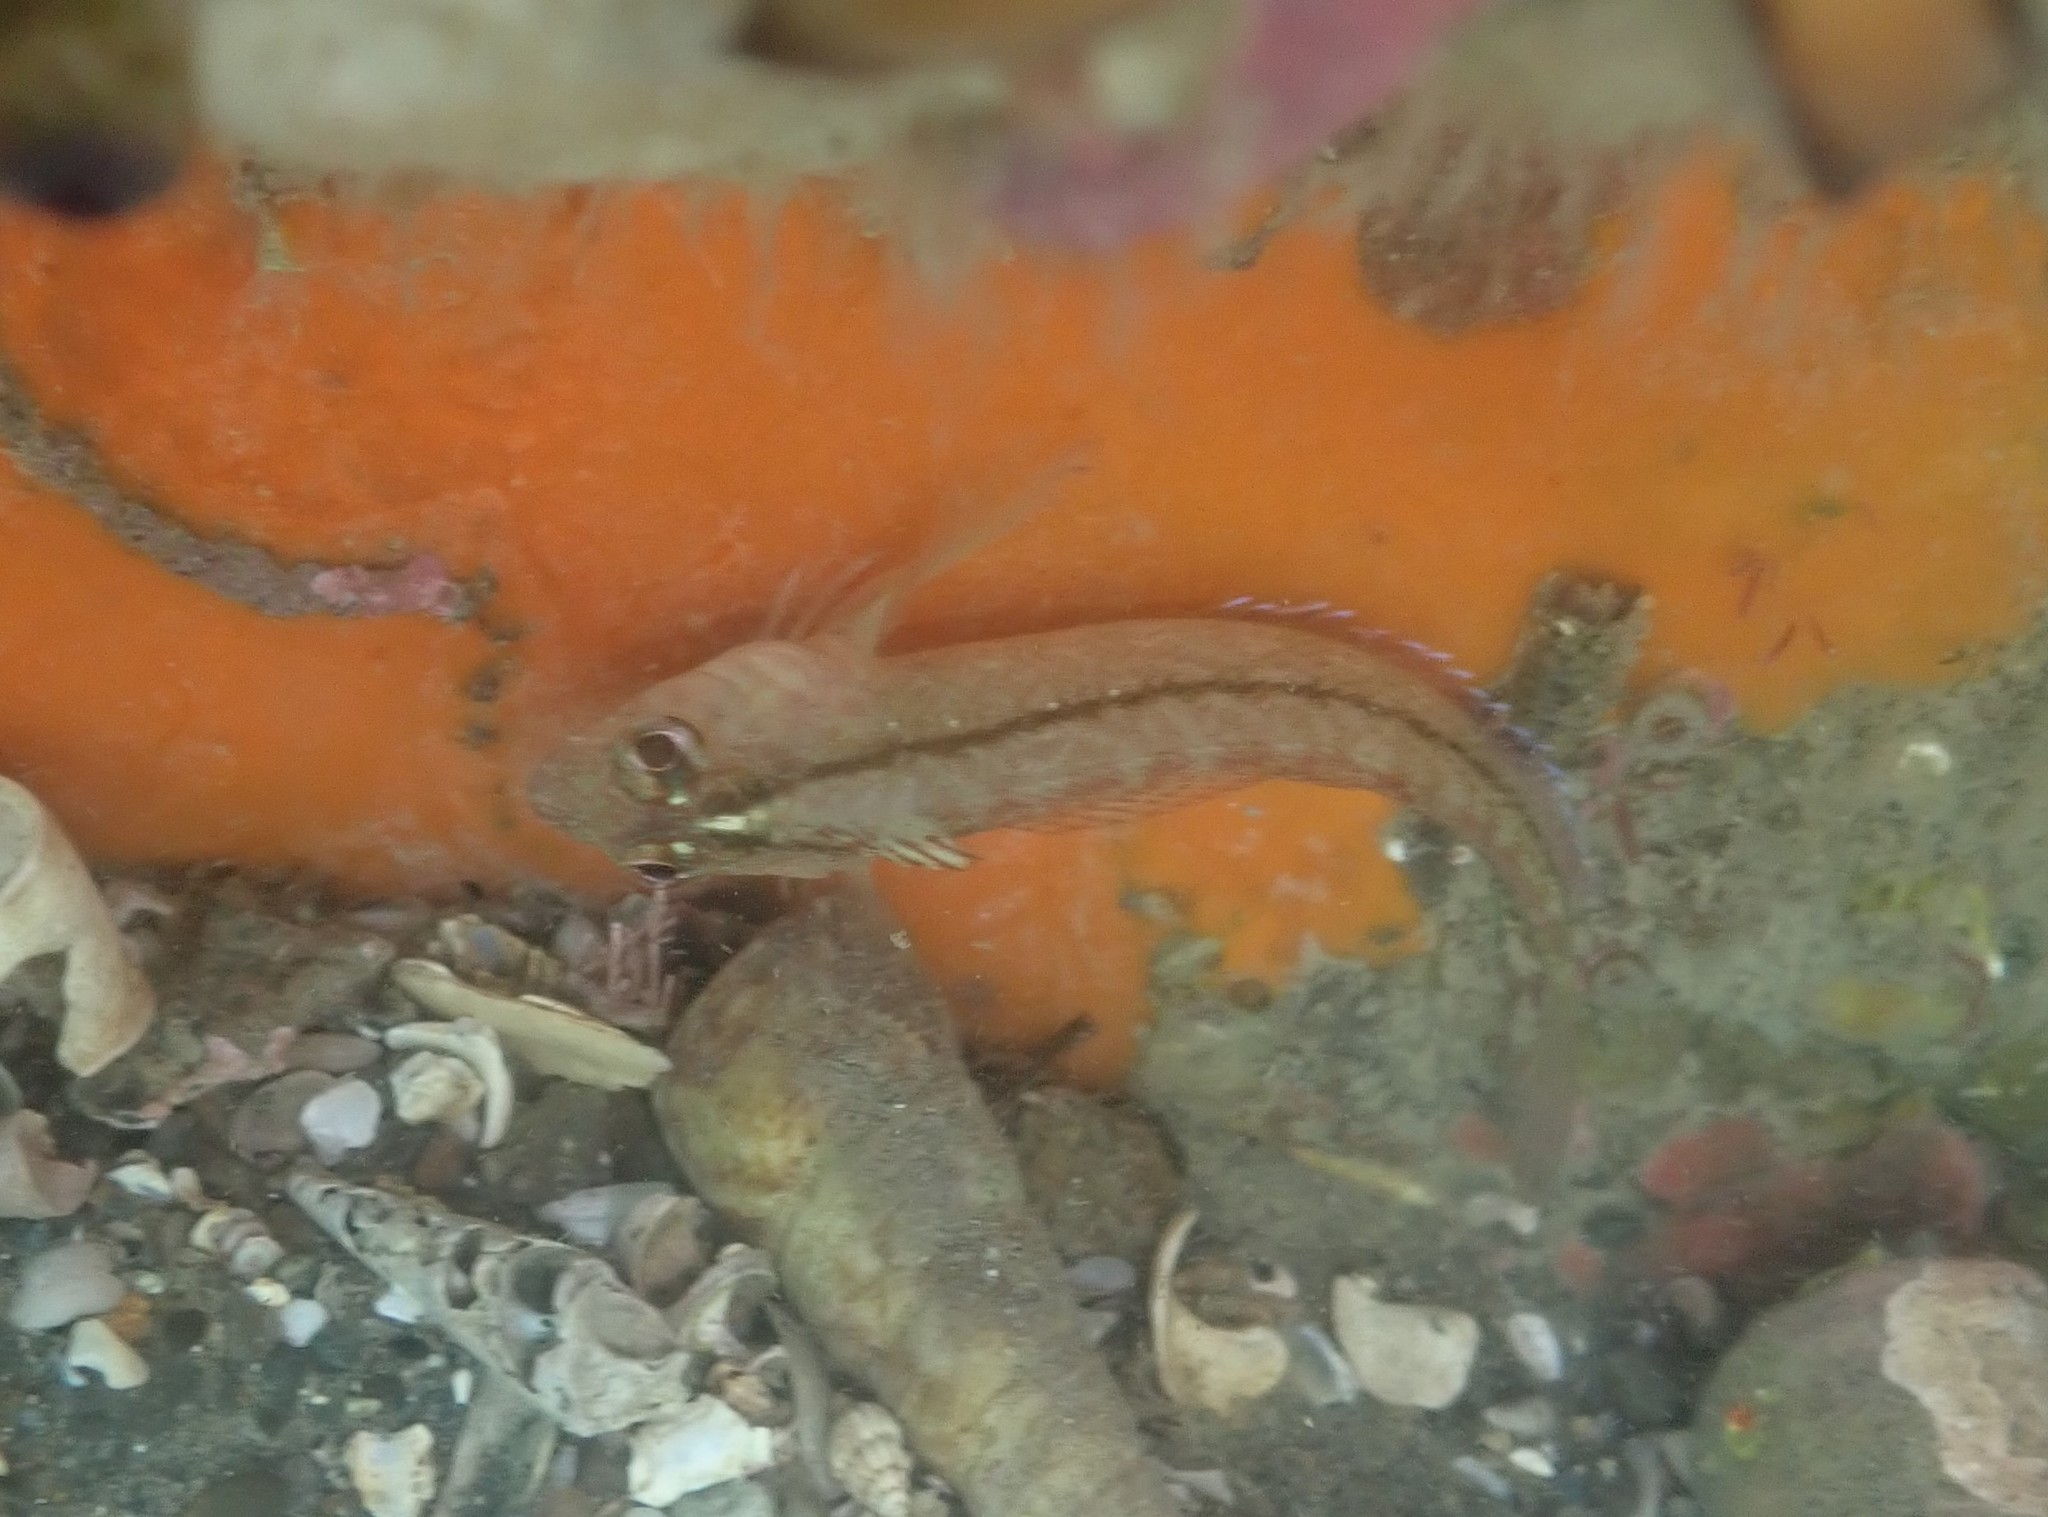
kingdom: Animalia
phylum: Chordata
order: Perciformes
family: Tripterygiidae
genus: Forsterygion
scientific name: Forsterygion lapillum
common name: Common triplefin
